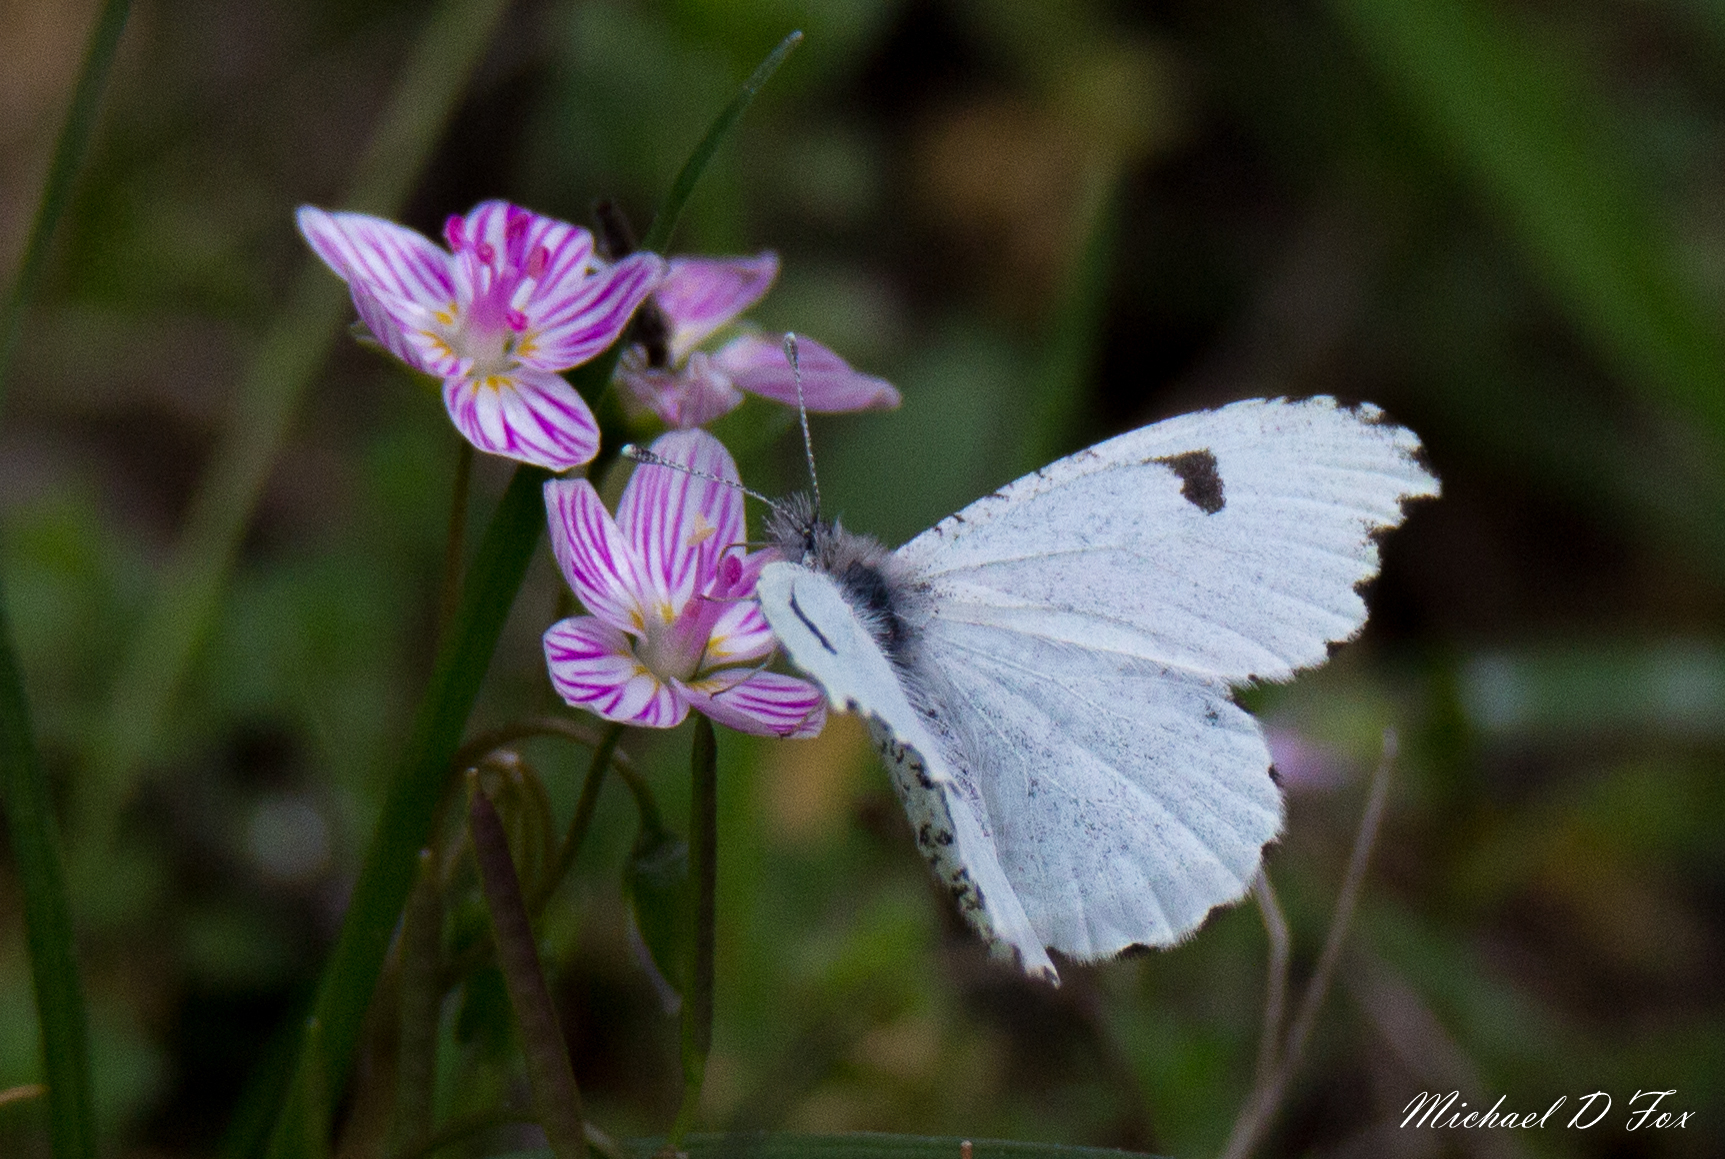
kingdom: Animalia
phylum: Arthropoda
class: Insecta
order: Lepidoptera
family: Pieridae
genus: Anthocharis
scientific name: Anthocharis midea
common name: Falcate orangetip
